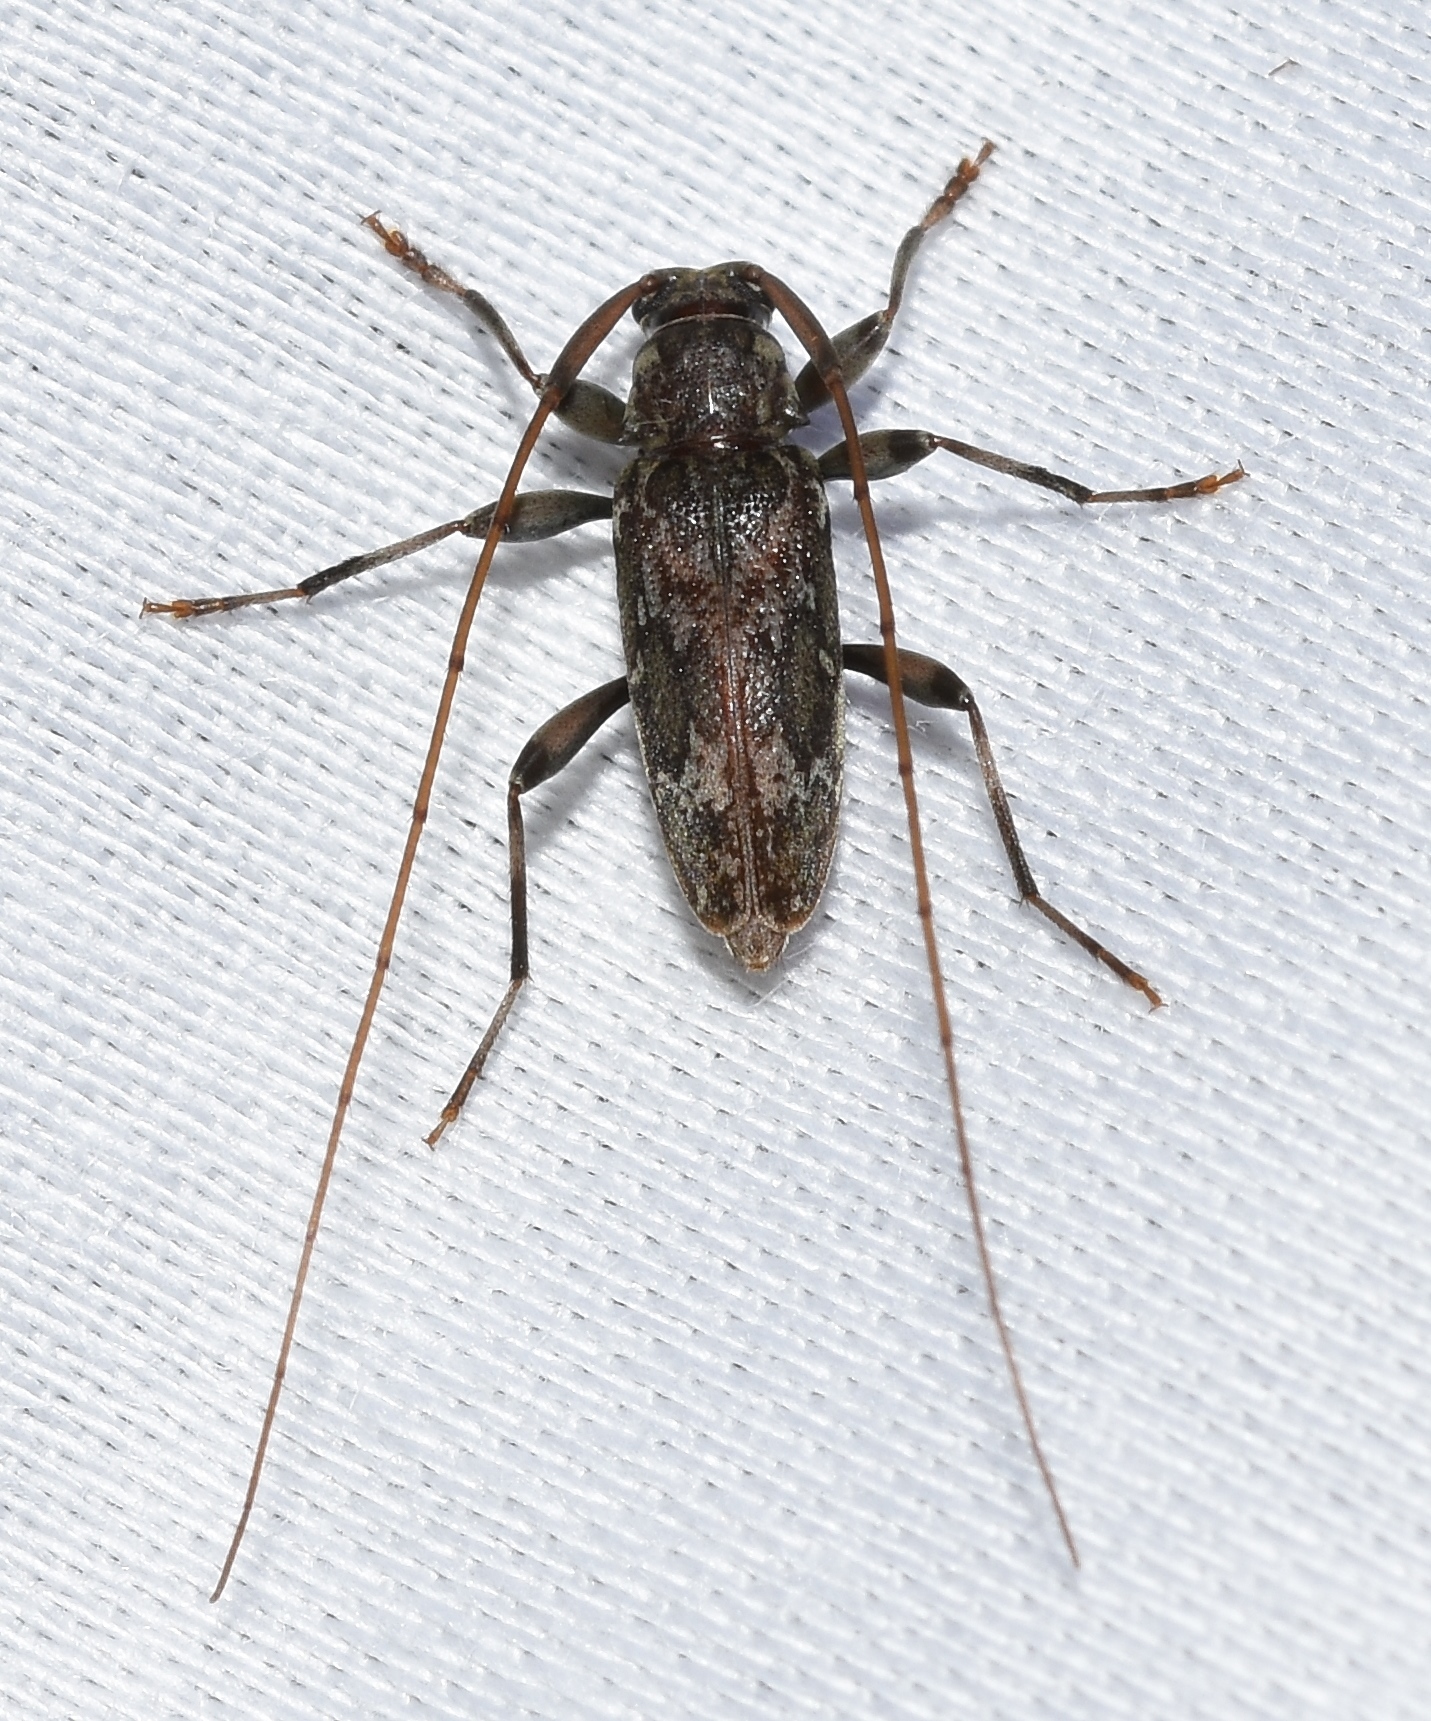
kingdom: Animalia
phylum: Arthropoda
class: Insecta
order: Coleoptera
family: Cerambycidae
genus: Lepturges
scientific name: Lepturges confluens
